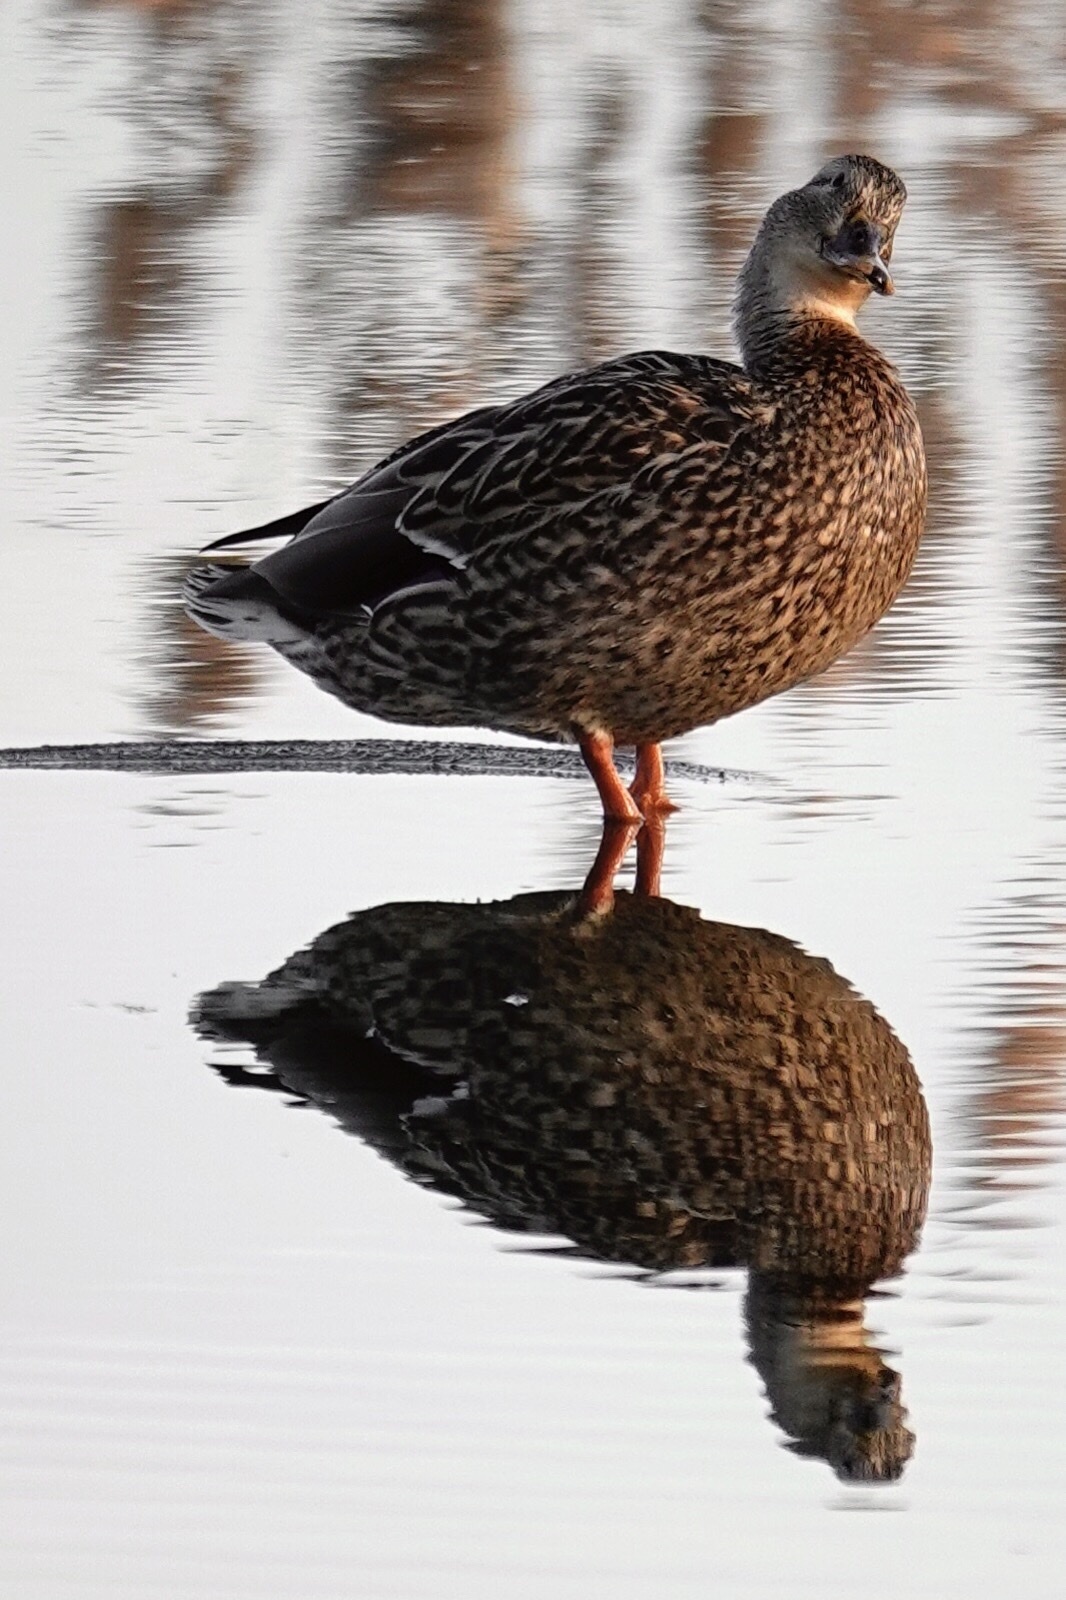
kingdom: Animalia
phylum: Chordata
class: Aves
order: Anseriformes
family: Anatidae
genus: Anas
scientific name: Anas platyrhynchos
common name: Mallard
